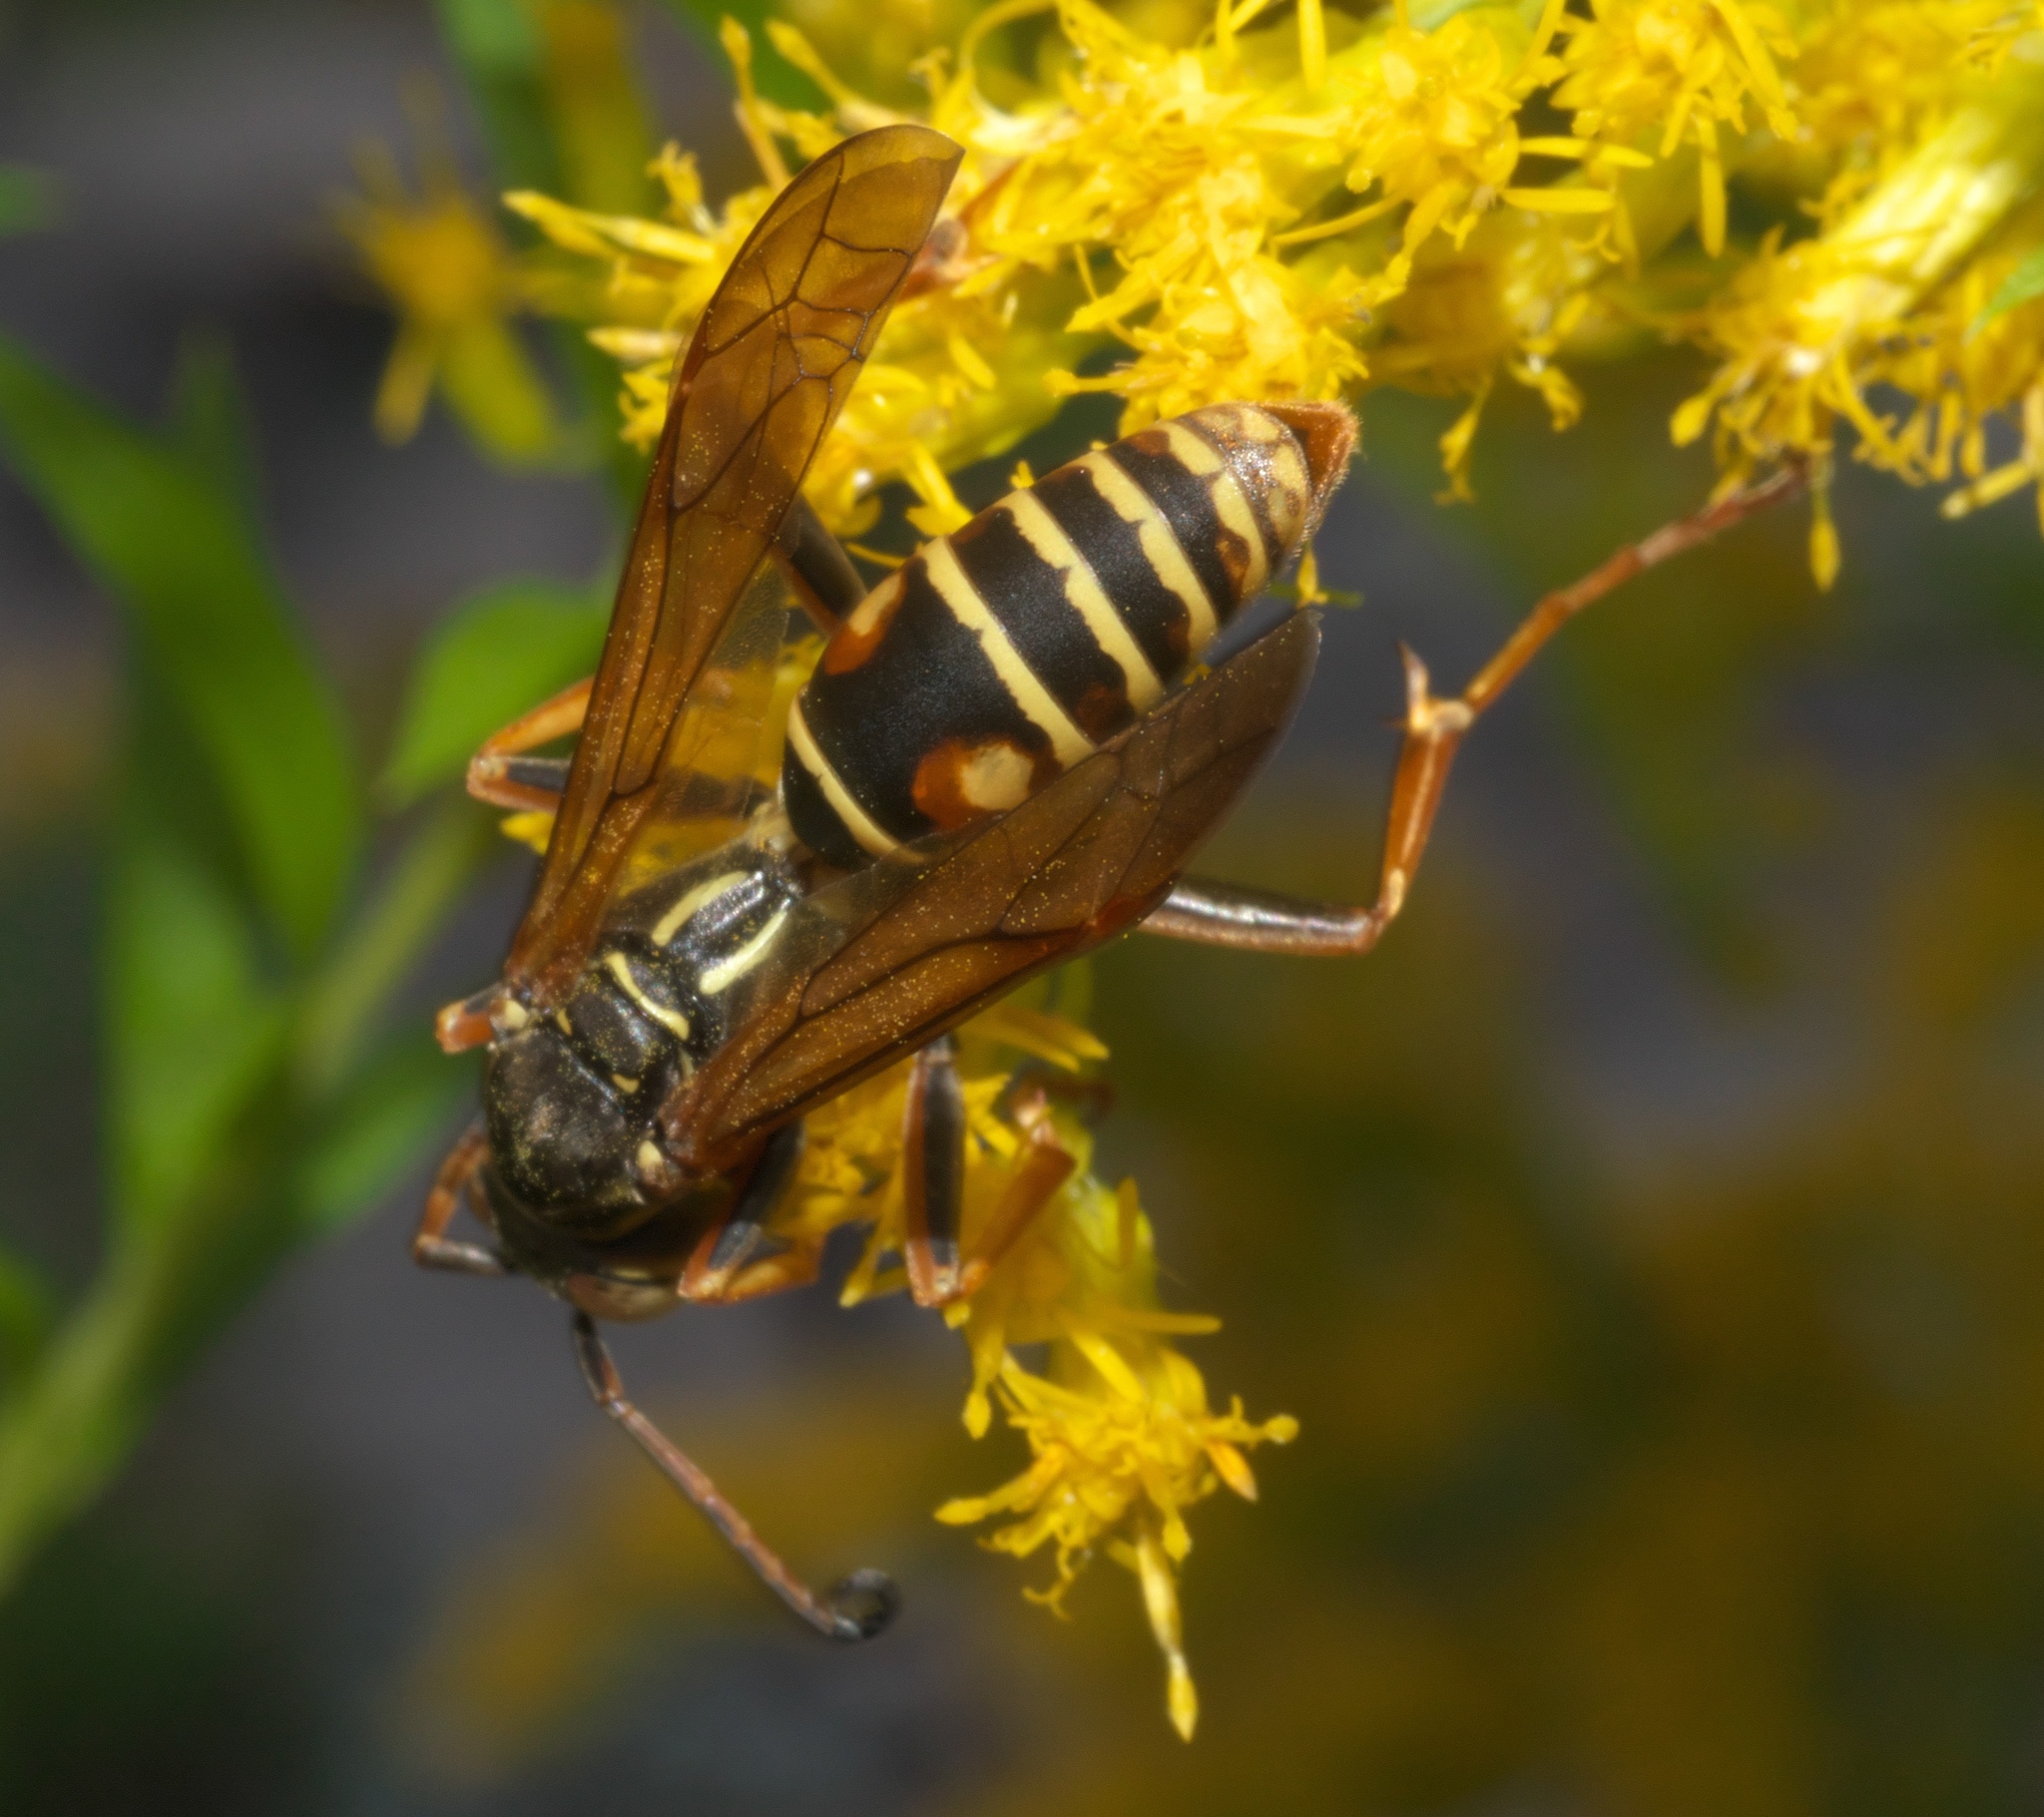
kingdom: Animalia
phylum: Arthropoda
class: Insecta
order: Hymenoptera
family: Eumenidae
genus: Polistes
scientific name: Polistes fuscatus
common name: Dark paper wasp
